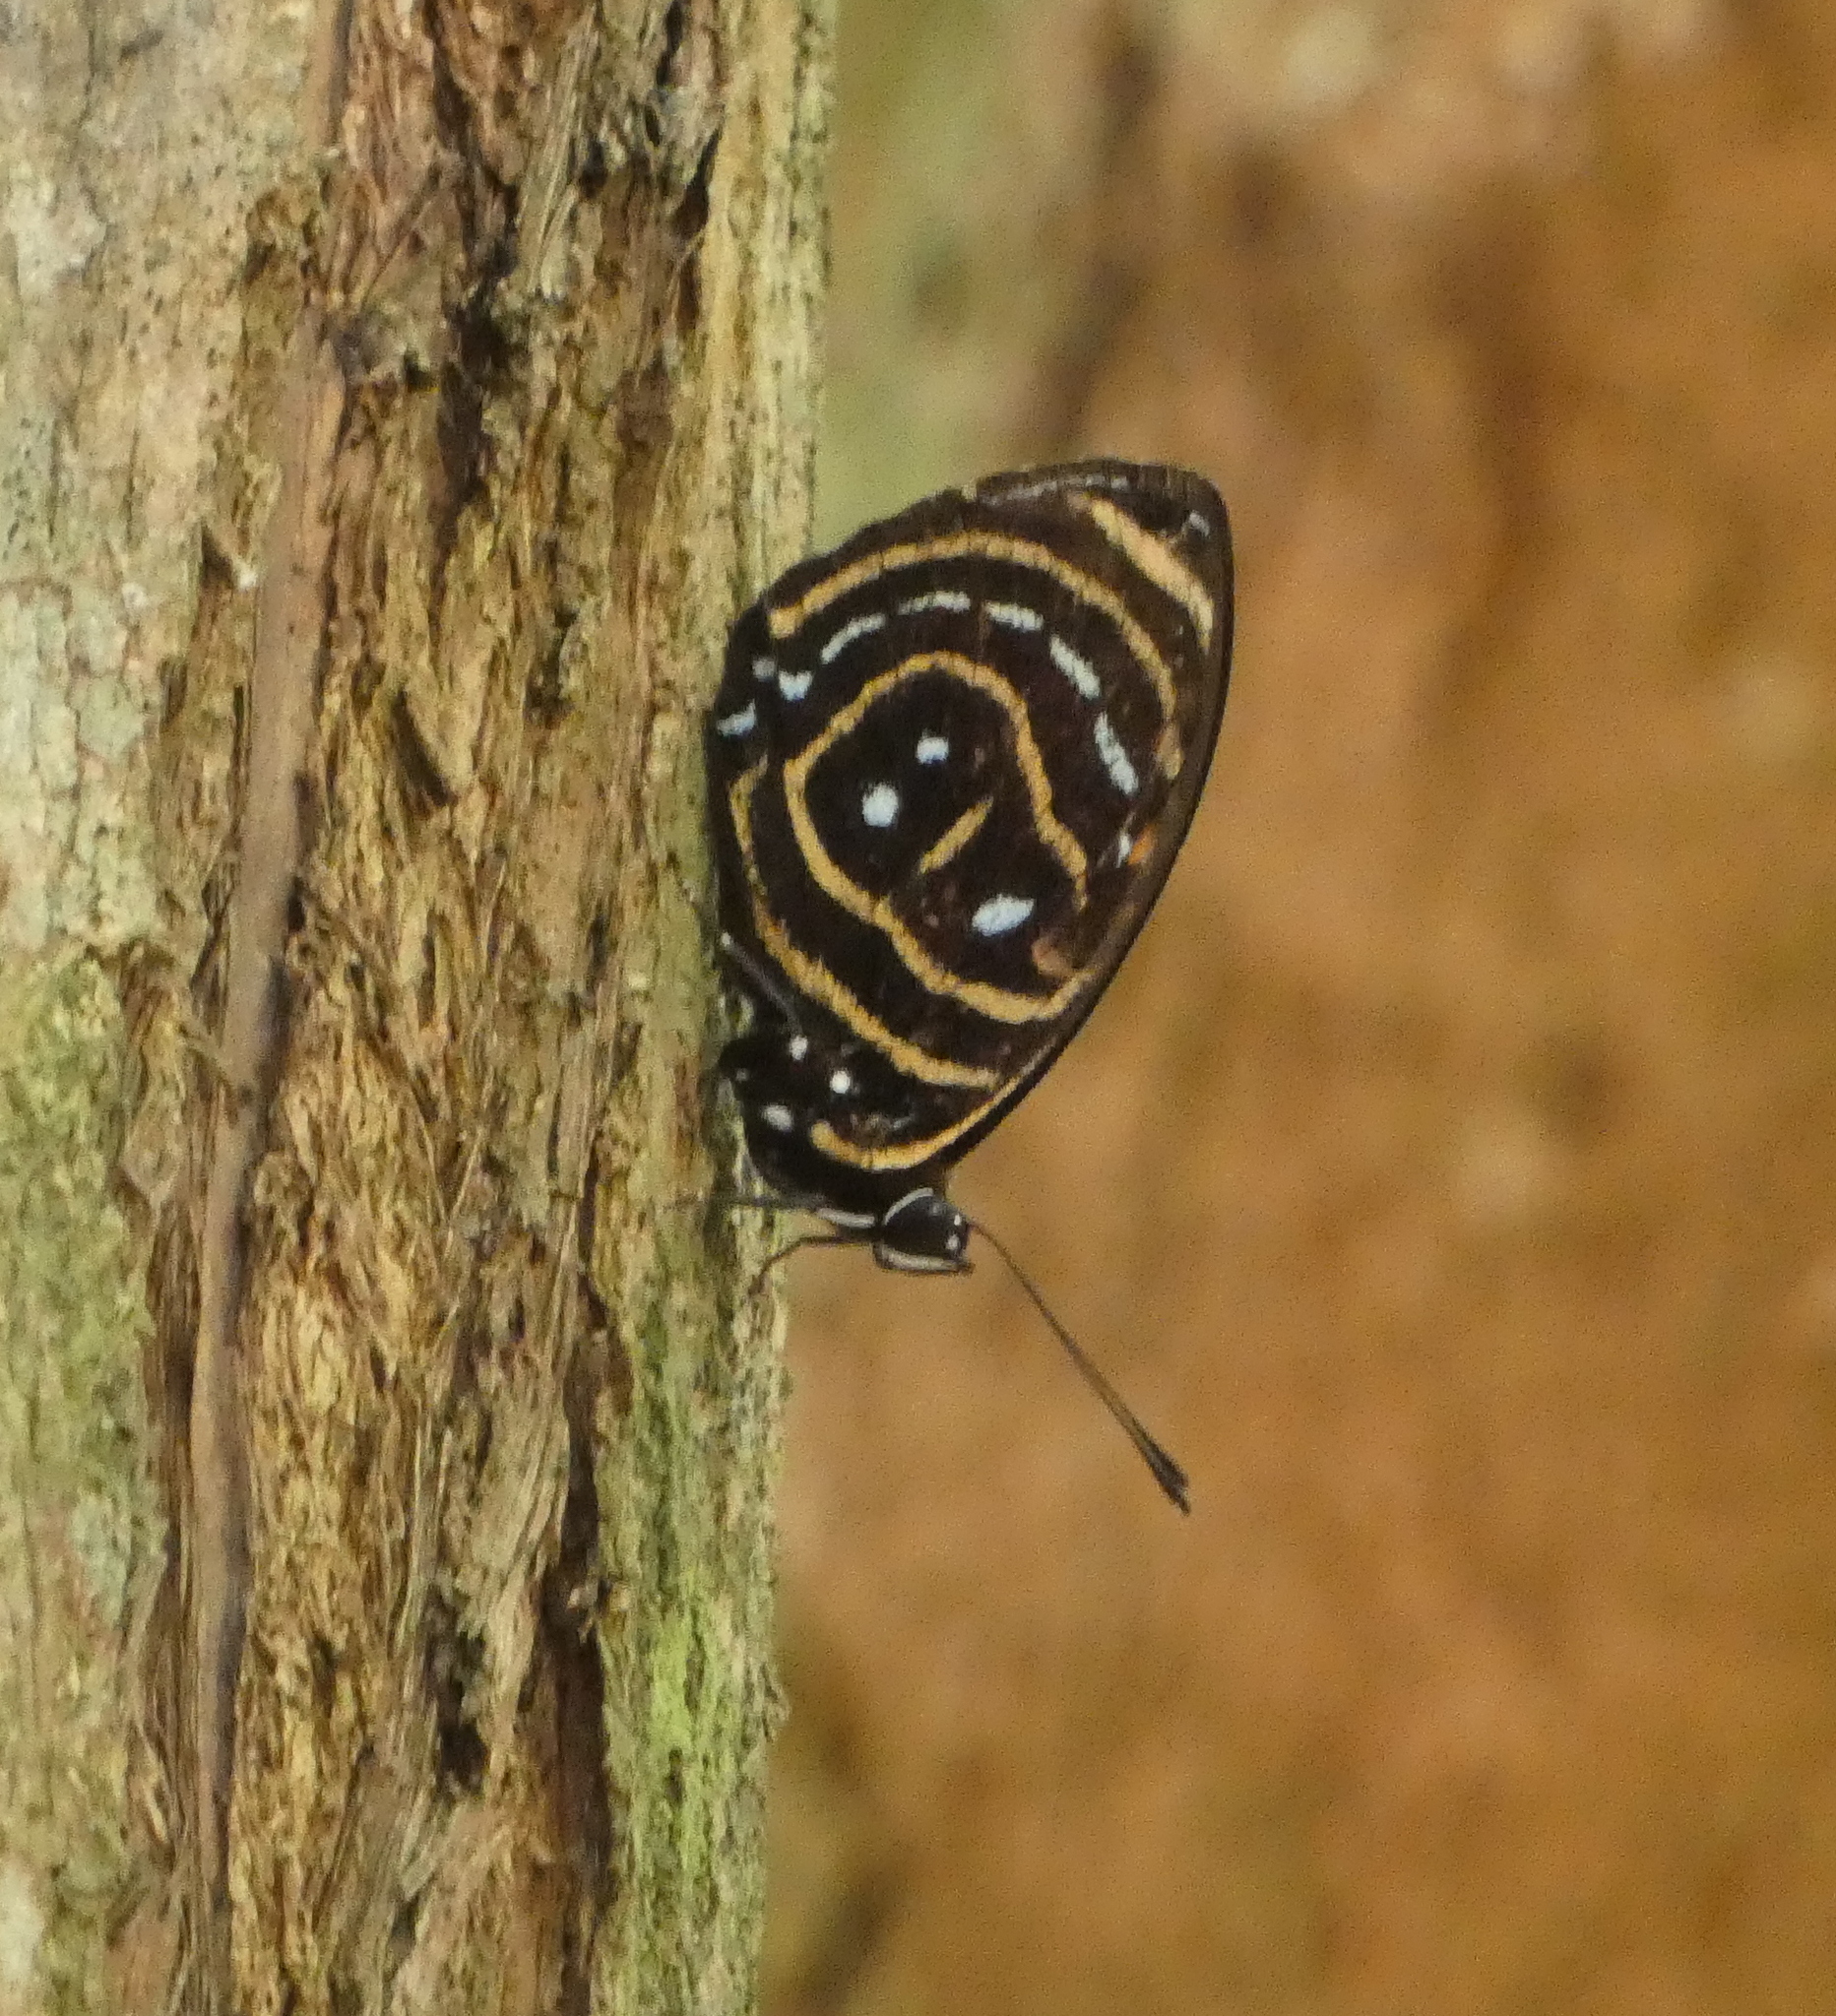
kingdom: Animalia
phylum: Arthropoda
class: Insecta
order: Lepidoptera
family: Nymphalidae
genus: Catagramma
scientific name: Catagramma astarte
